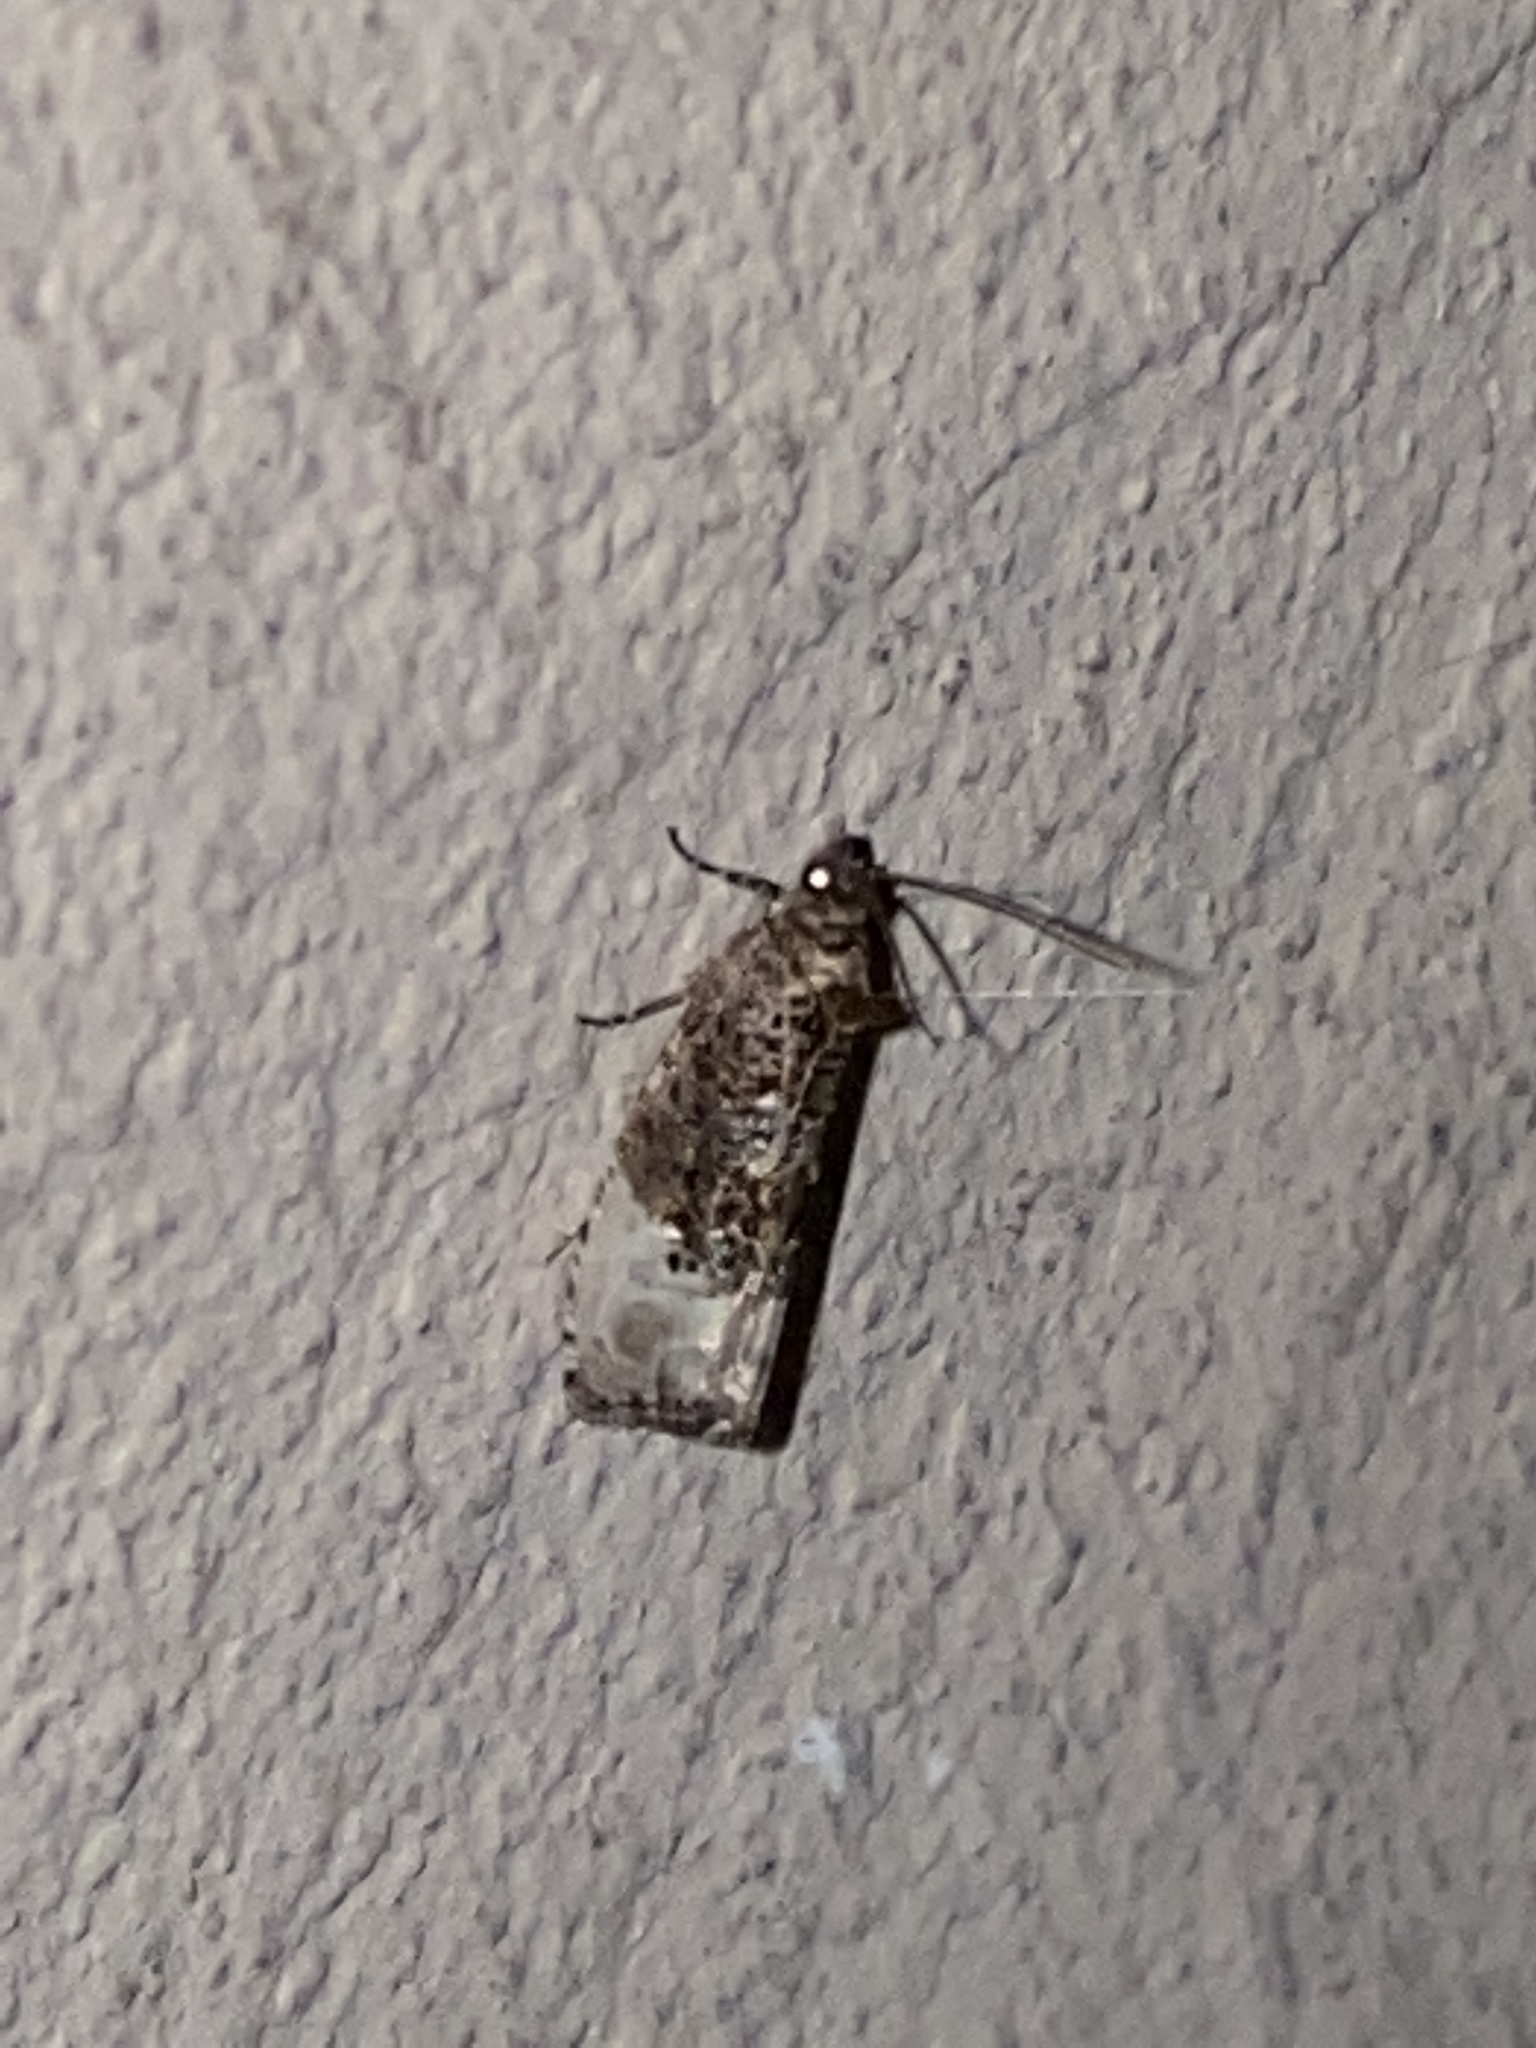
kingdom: Animalia
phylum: Arthropoda
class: Insecta
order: Lepidoptera
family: Tortricidae
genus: Hedya
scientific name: Hedya nubiferana
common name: Marbled orchard tortrix
